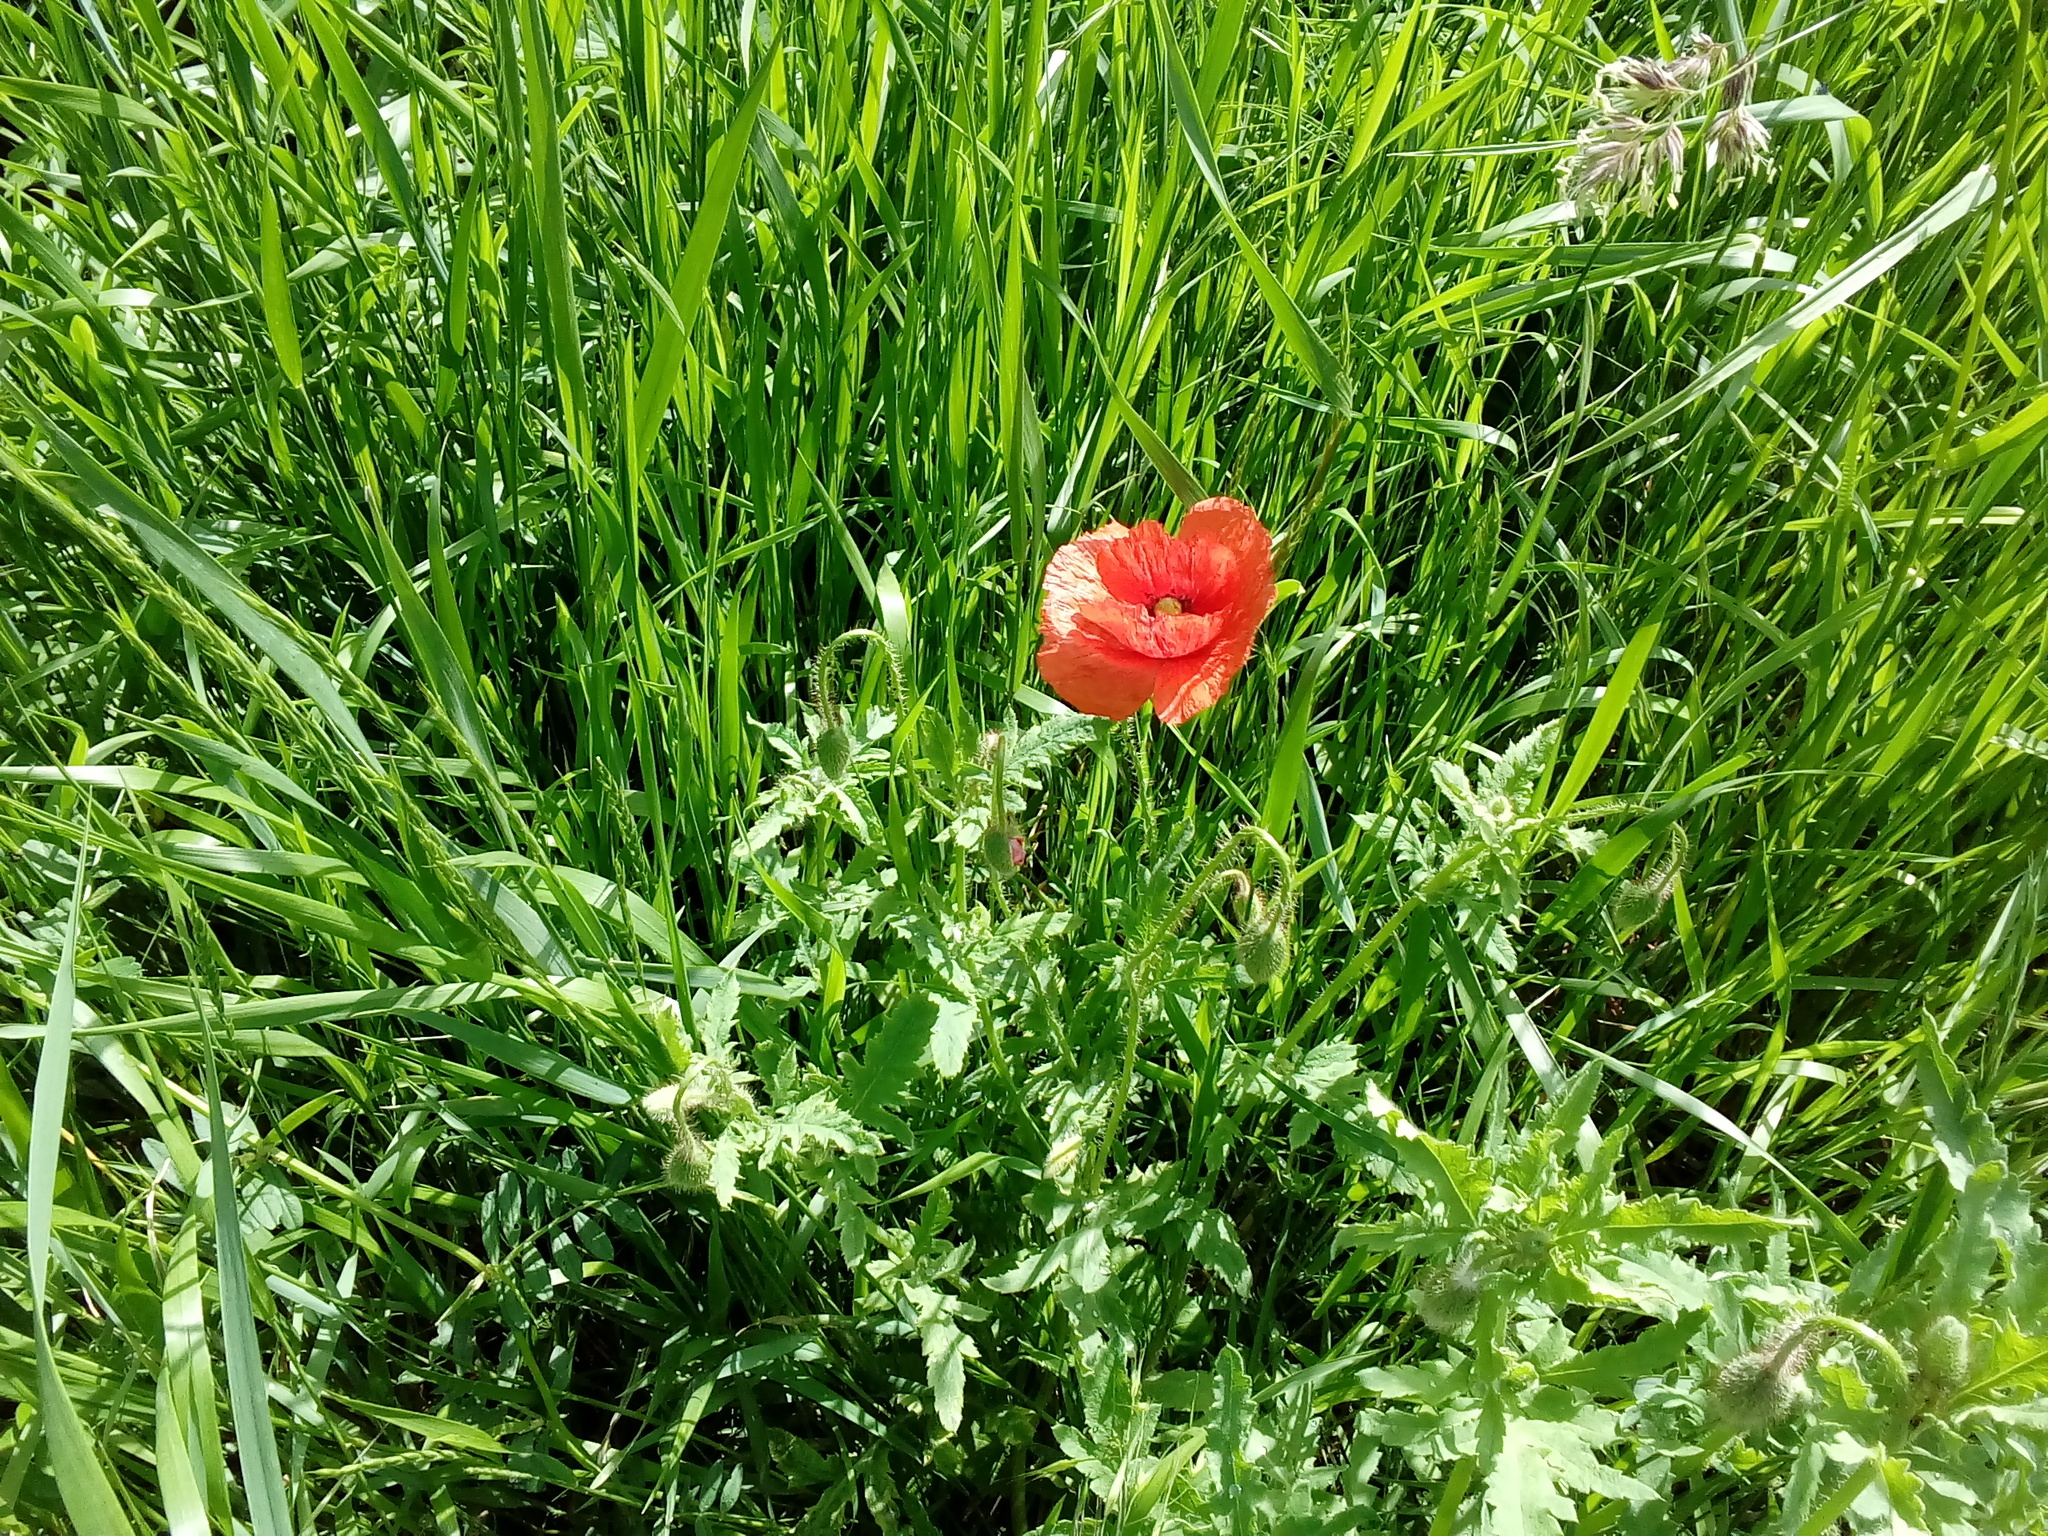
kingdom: Plantae
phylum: Tracheophyta
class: Magnoliopsida
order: Ranunculales
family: Papaveraceae
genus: Papaver
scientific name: Papaver rhoeas
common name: Corn poppy
